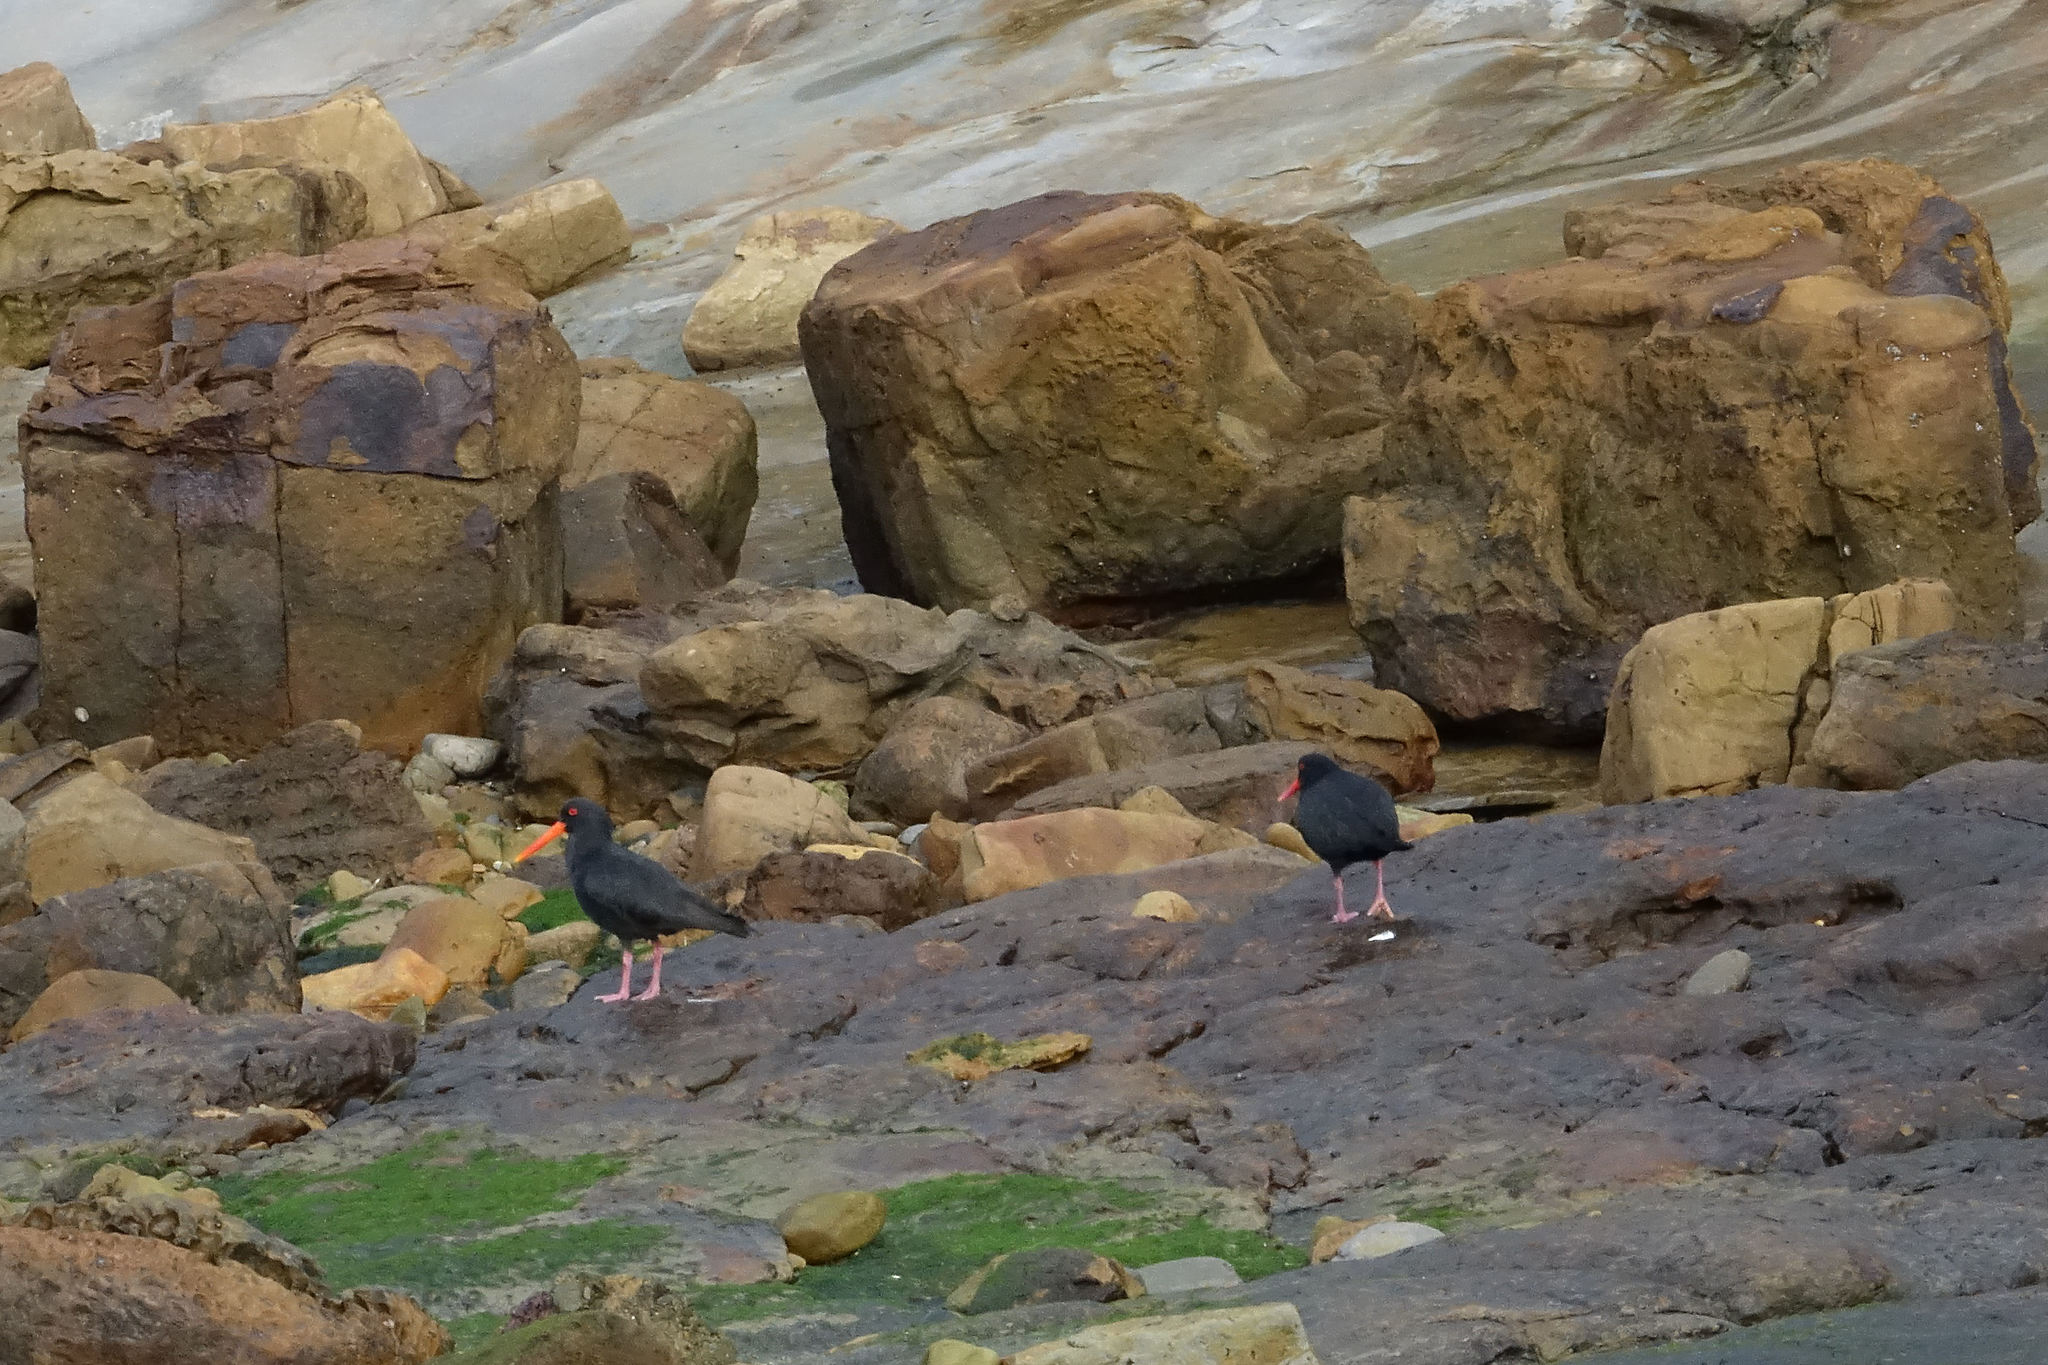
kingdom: Animalia
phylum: Chordata
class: Aves
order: Charadriiformes
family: Haematopodidae
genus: Haematopus
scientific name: Haematopus unicolor
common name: Variable oystercatcher
